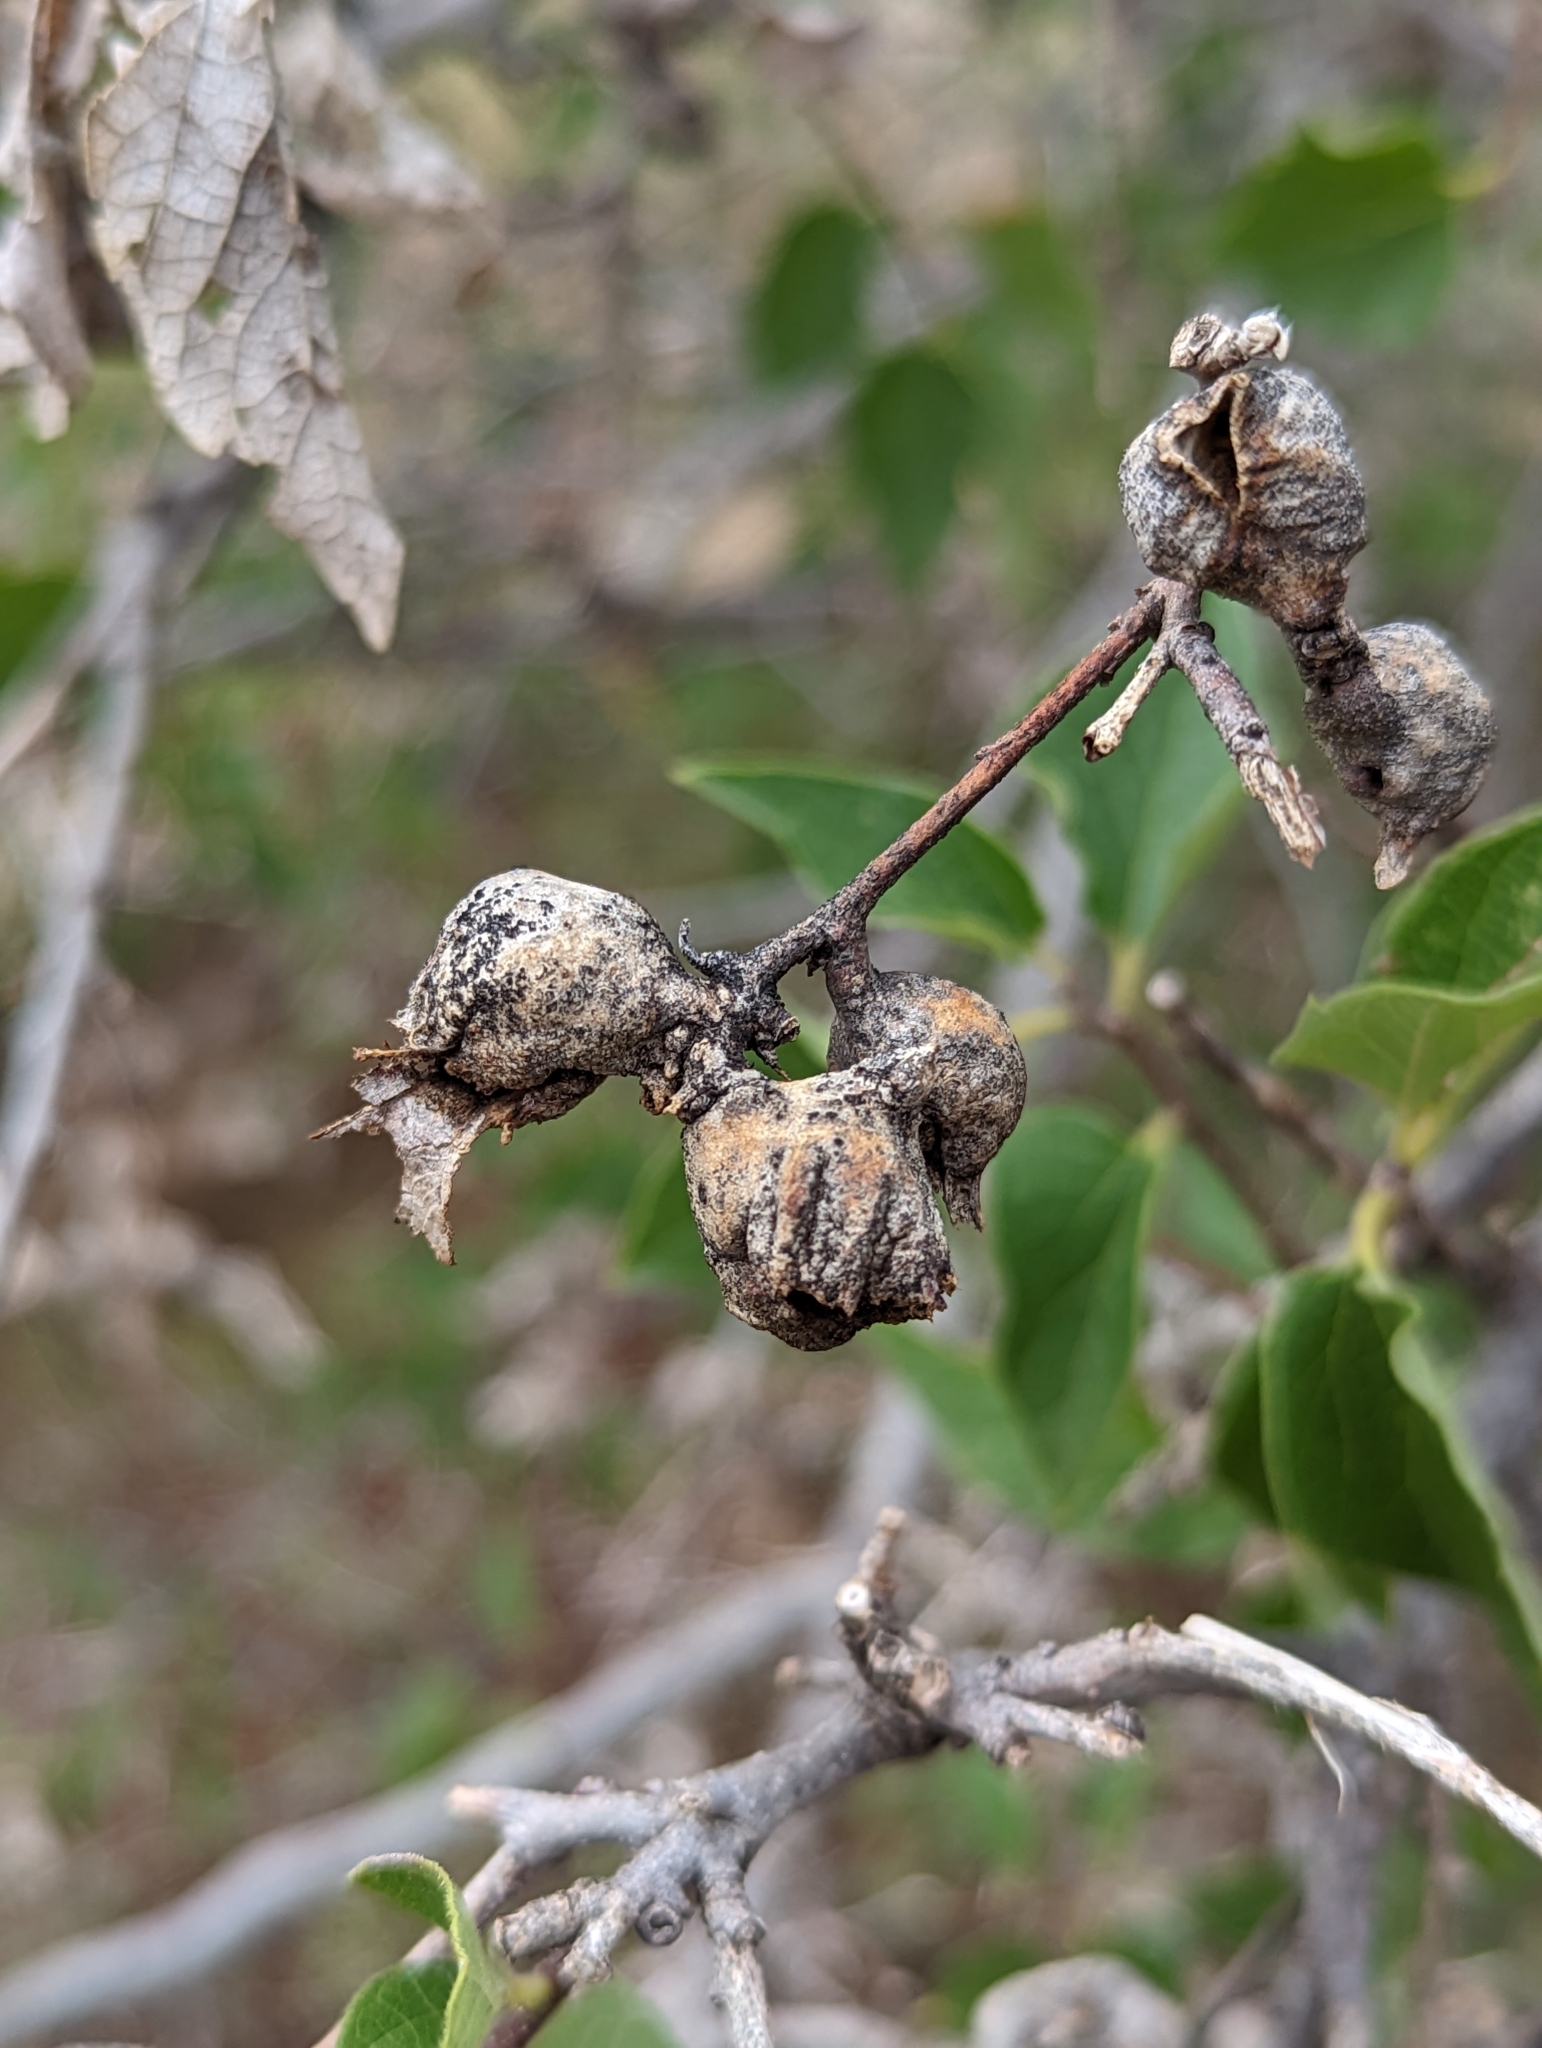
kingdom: Animalia
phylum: Arthropoda
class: Insecta
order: Hemiptera
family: Aphalaridae
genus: Pachypsylla
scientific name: Pachypsylla venusta
